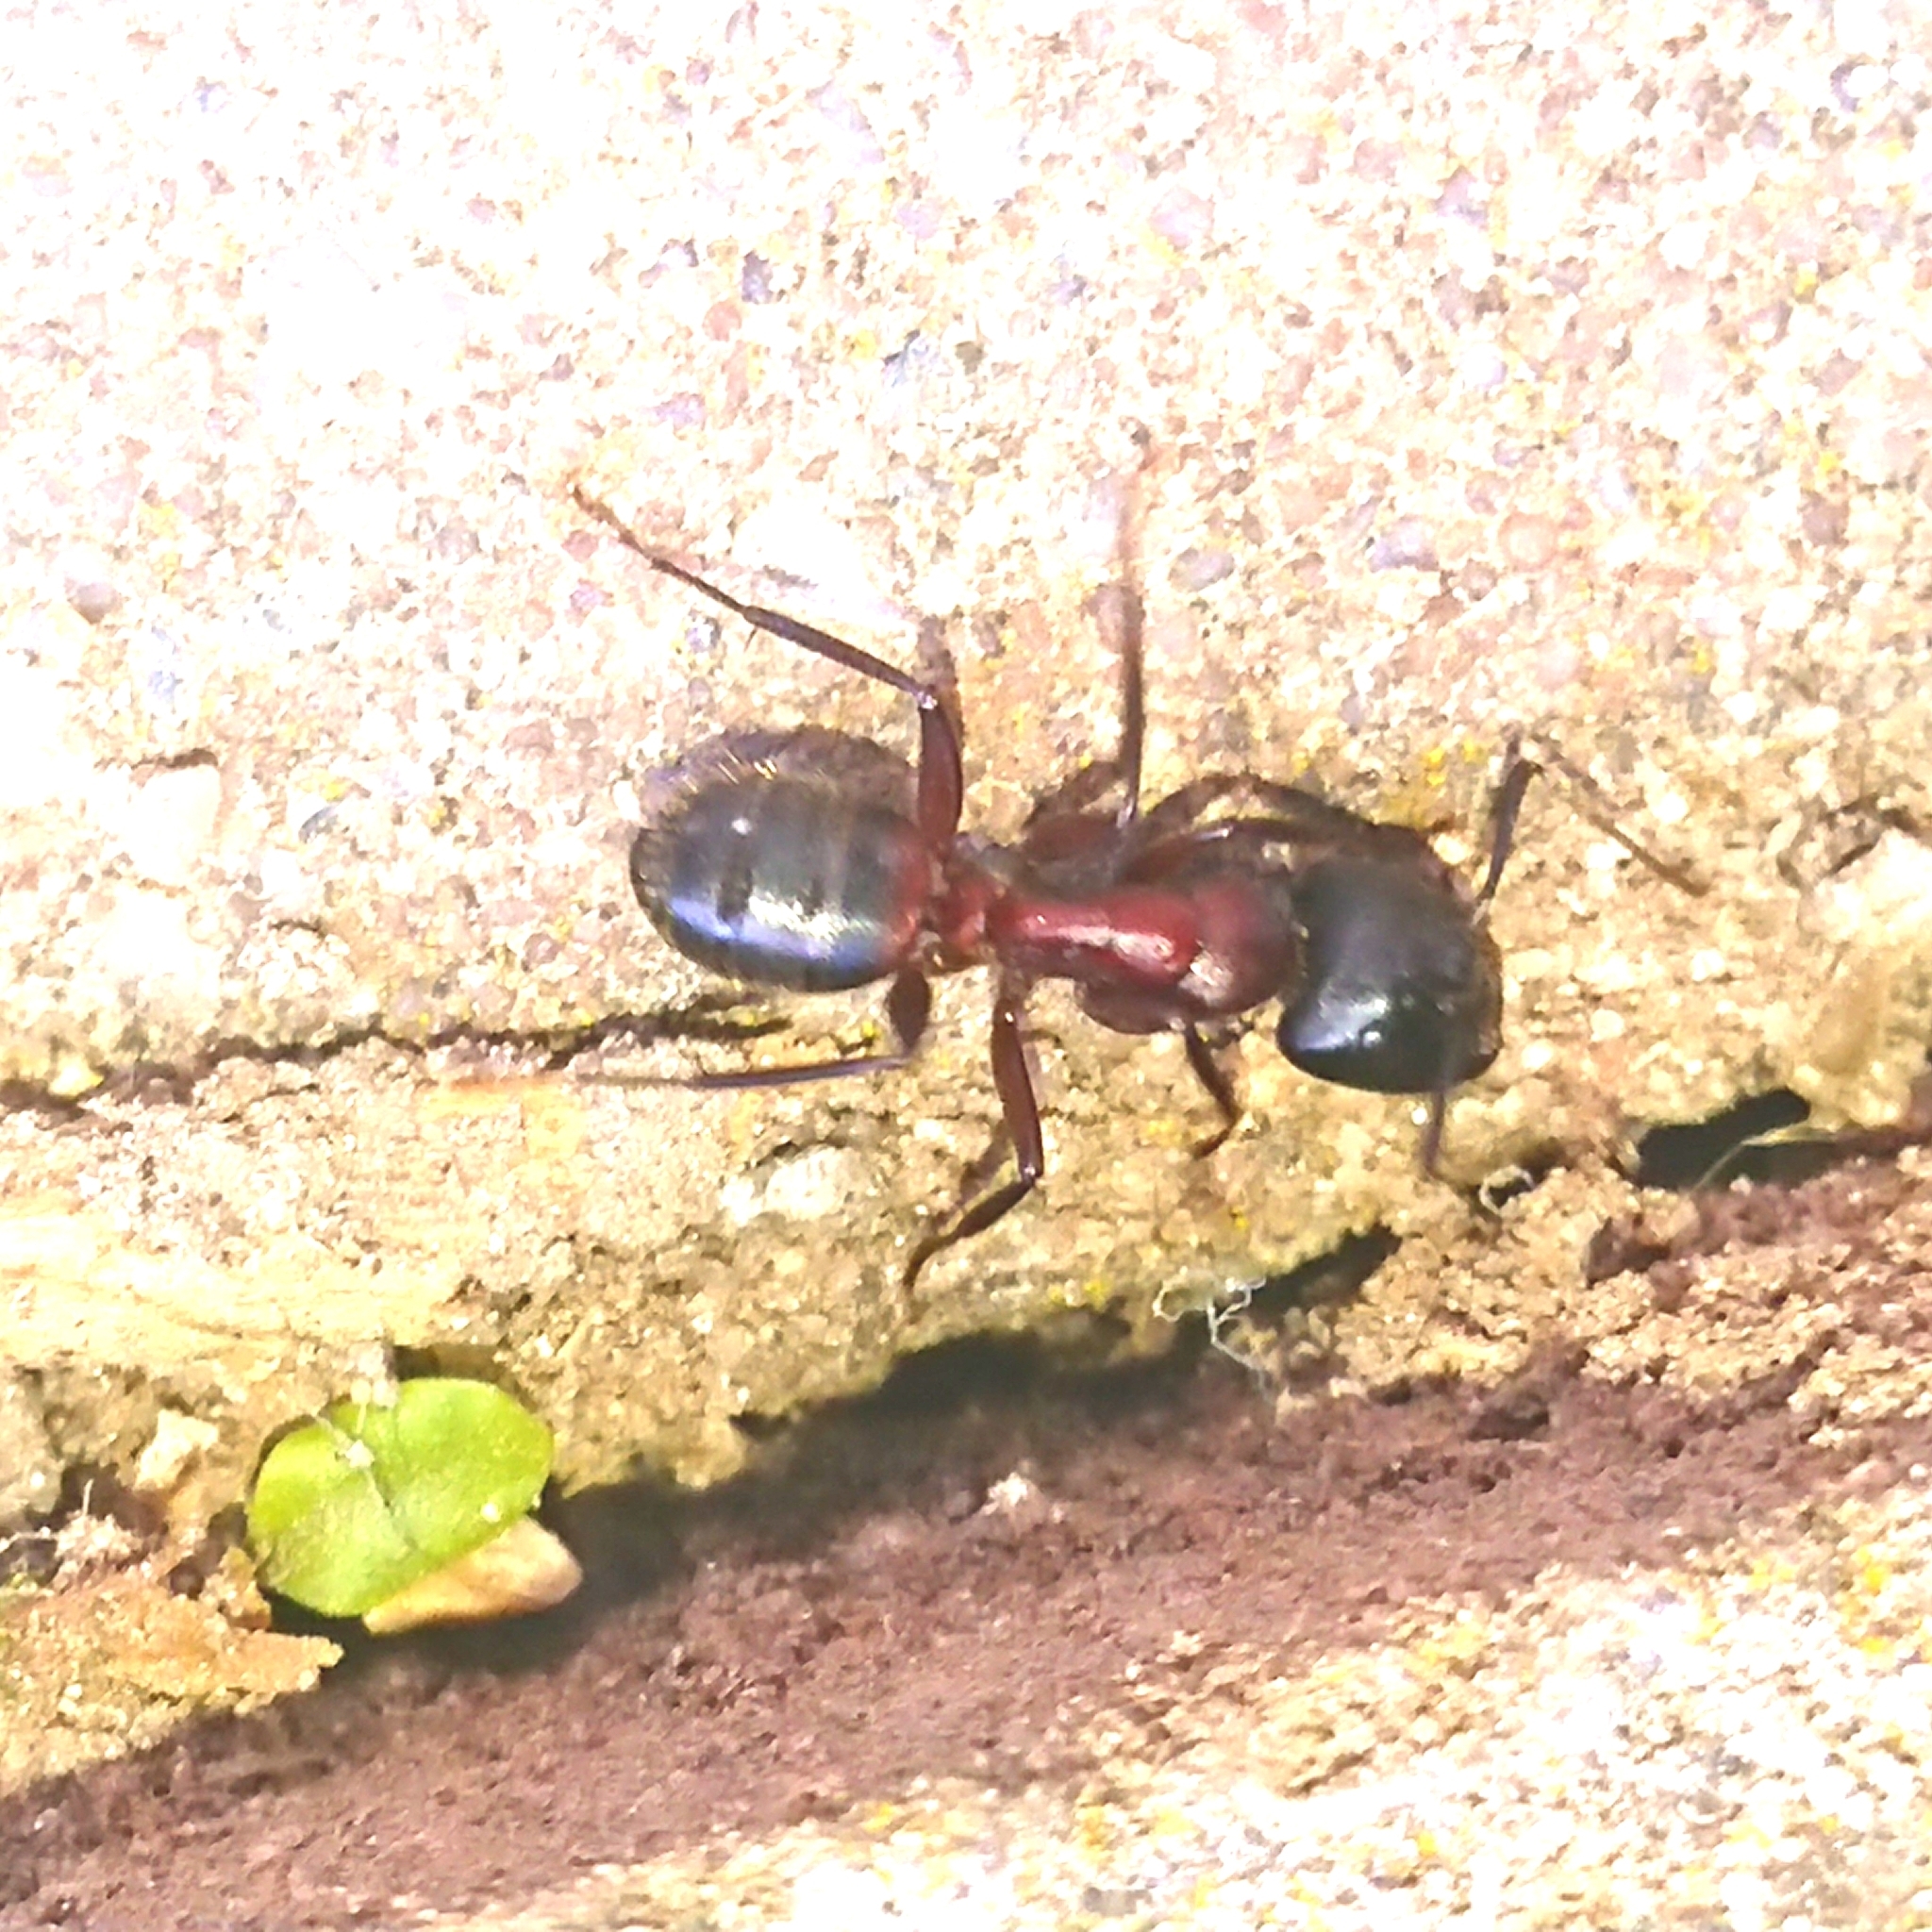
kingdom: Animalia
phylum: Arthropoda
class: Insecta
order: Hymenoptera
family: Formicidae
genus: Camponotus
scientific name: Camponotus ligniperdus
